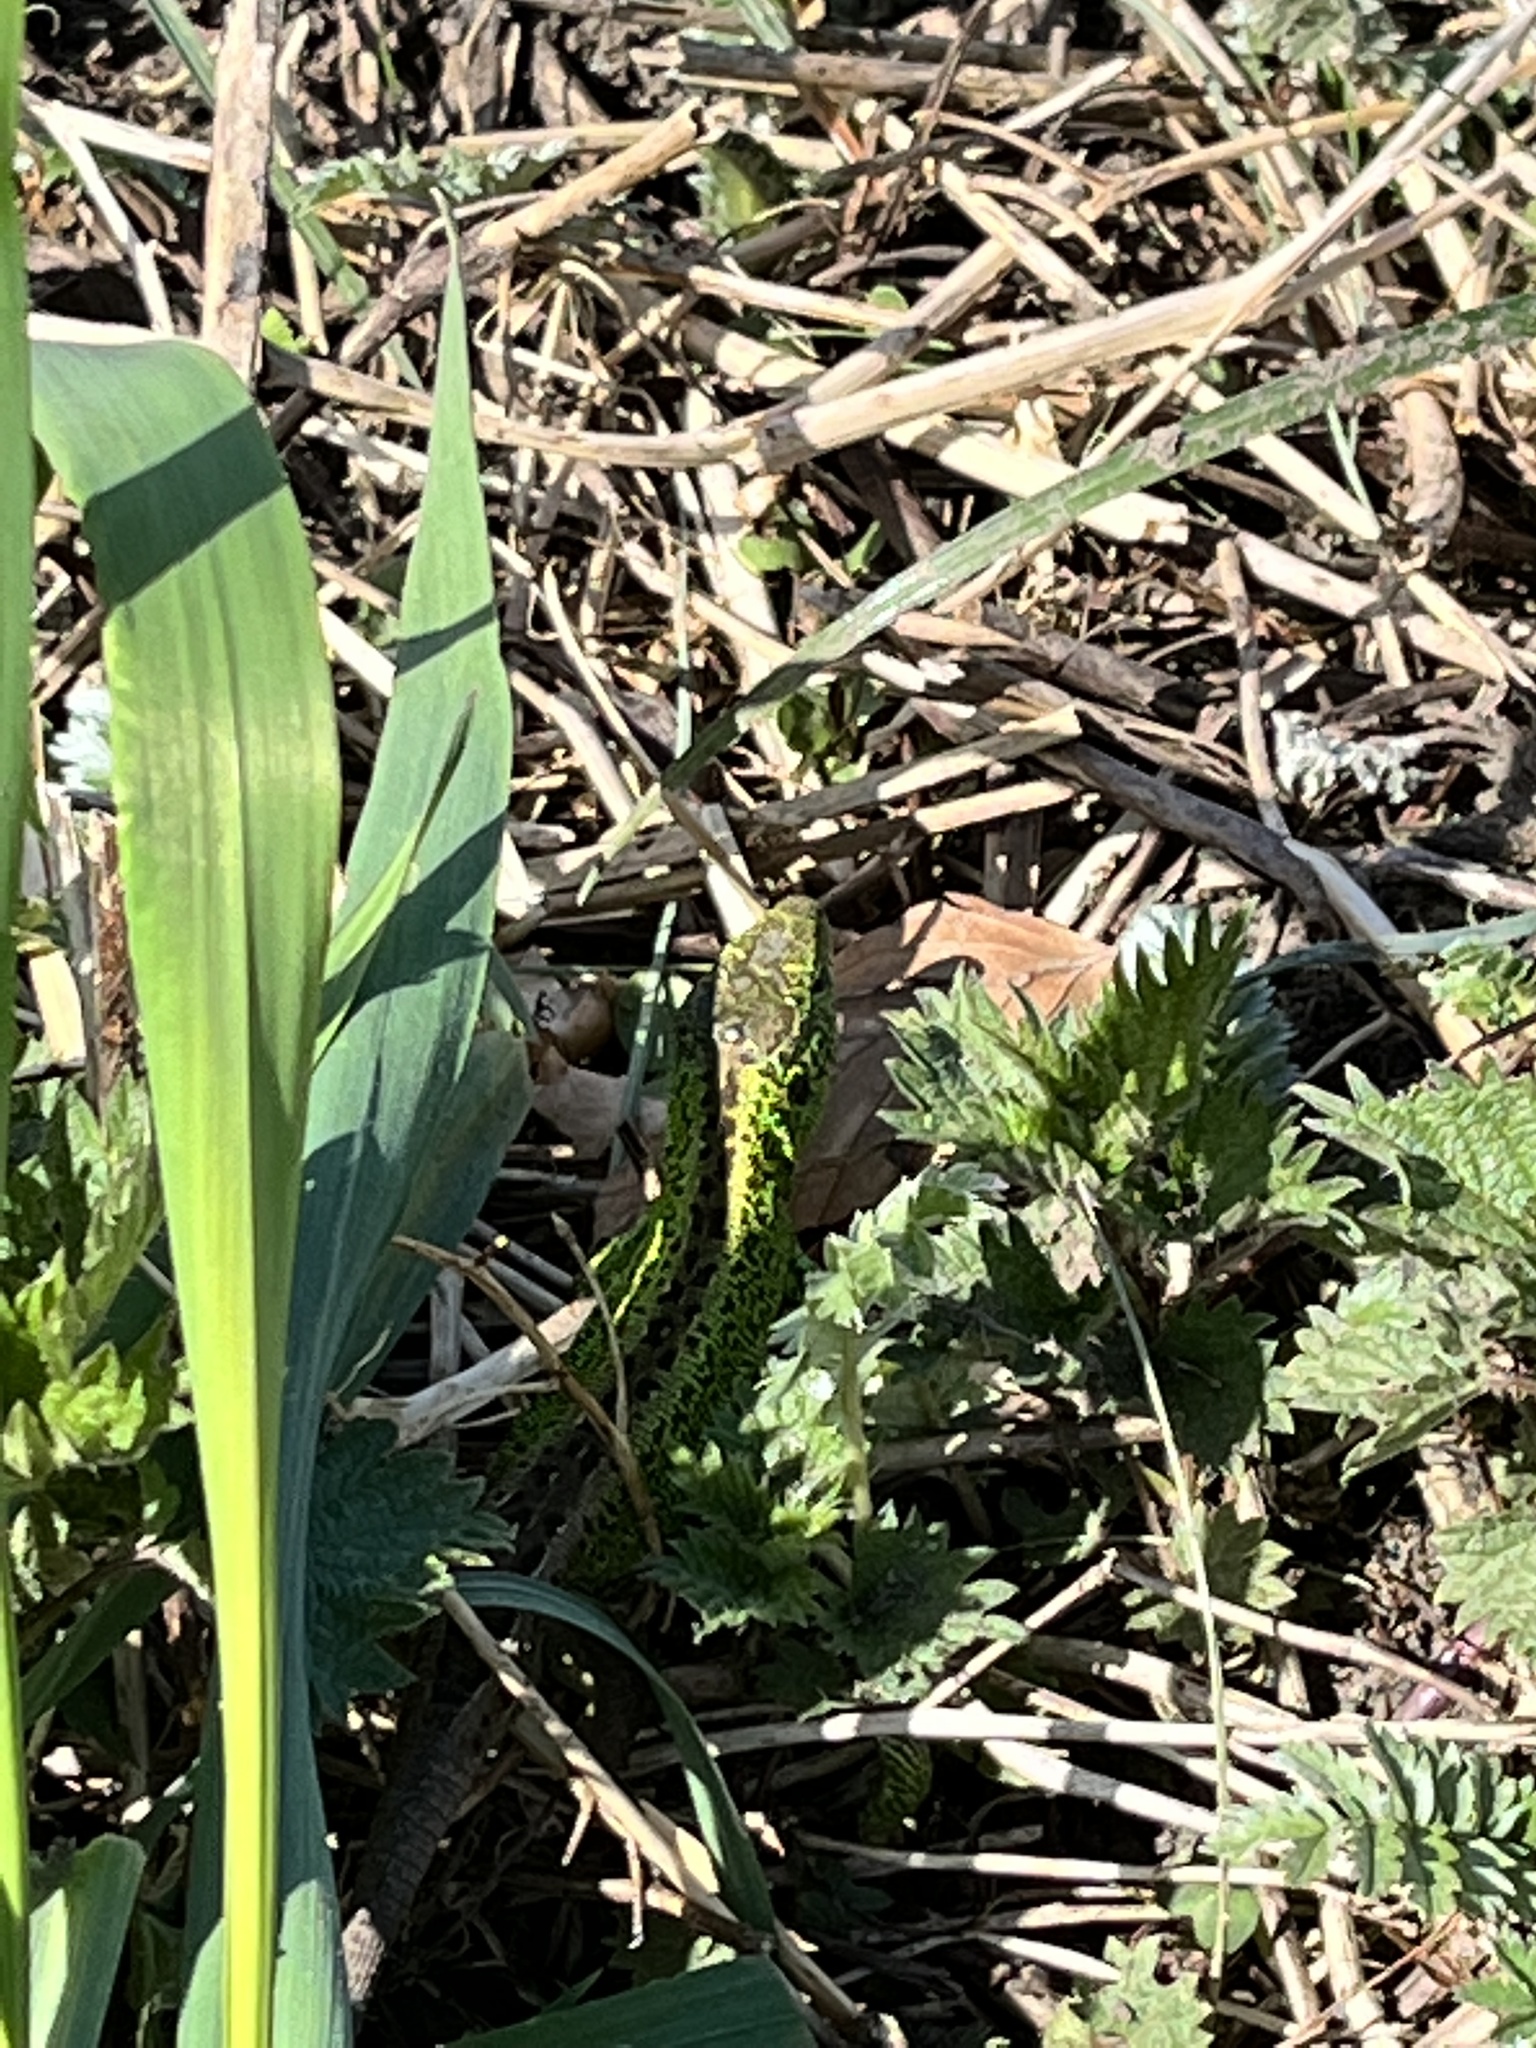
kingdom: Animalia
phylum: Chordata
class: Squamata
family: Lacertidae
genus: Lacerta
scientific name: Lacerta agilis
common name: Sand lizard
